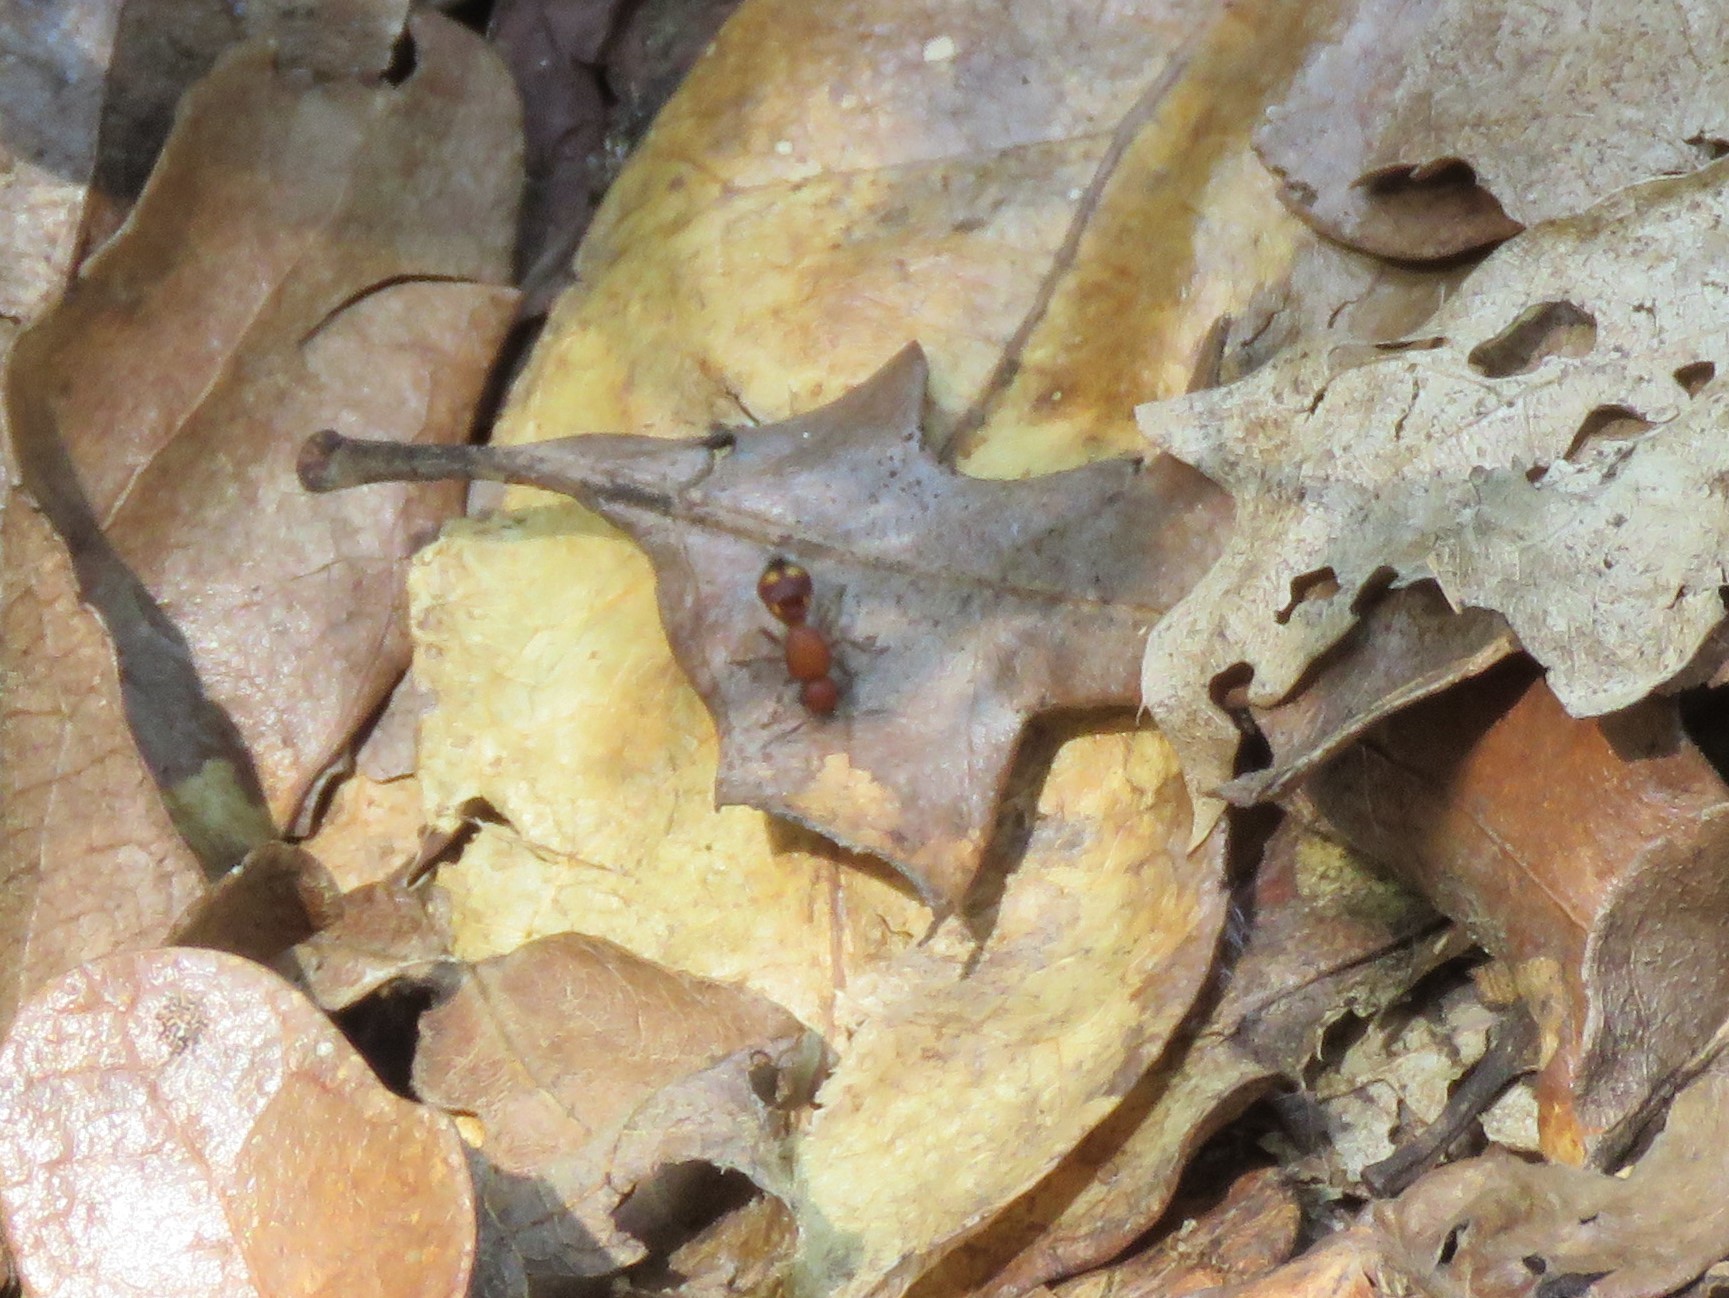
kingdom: Animalia
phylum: Arthropoda
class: Insecta
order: Hymenoptera
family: Mutillidae
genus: Dasymutilla
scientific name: Dasymutilla
